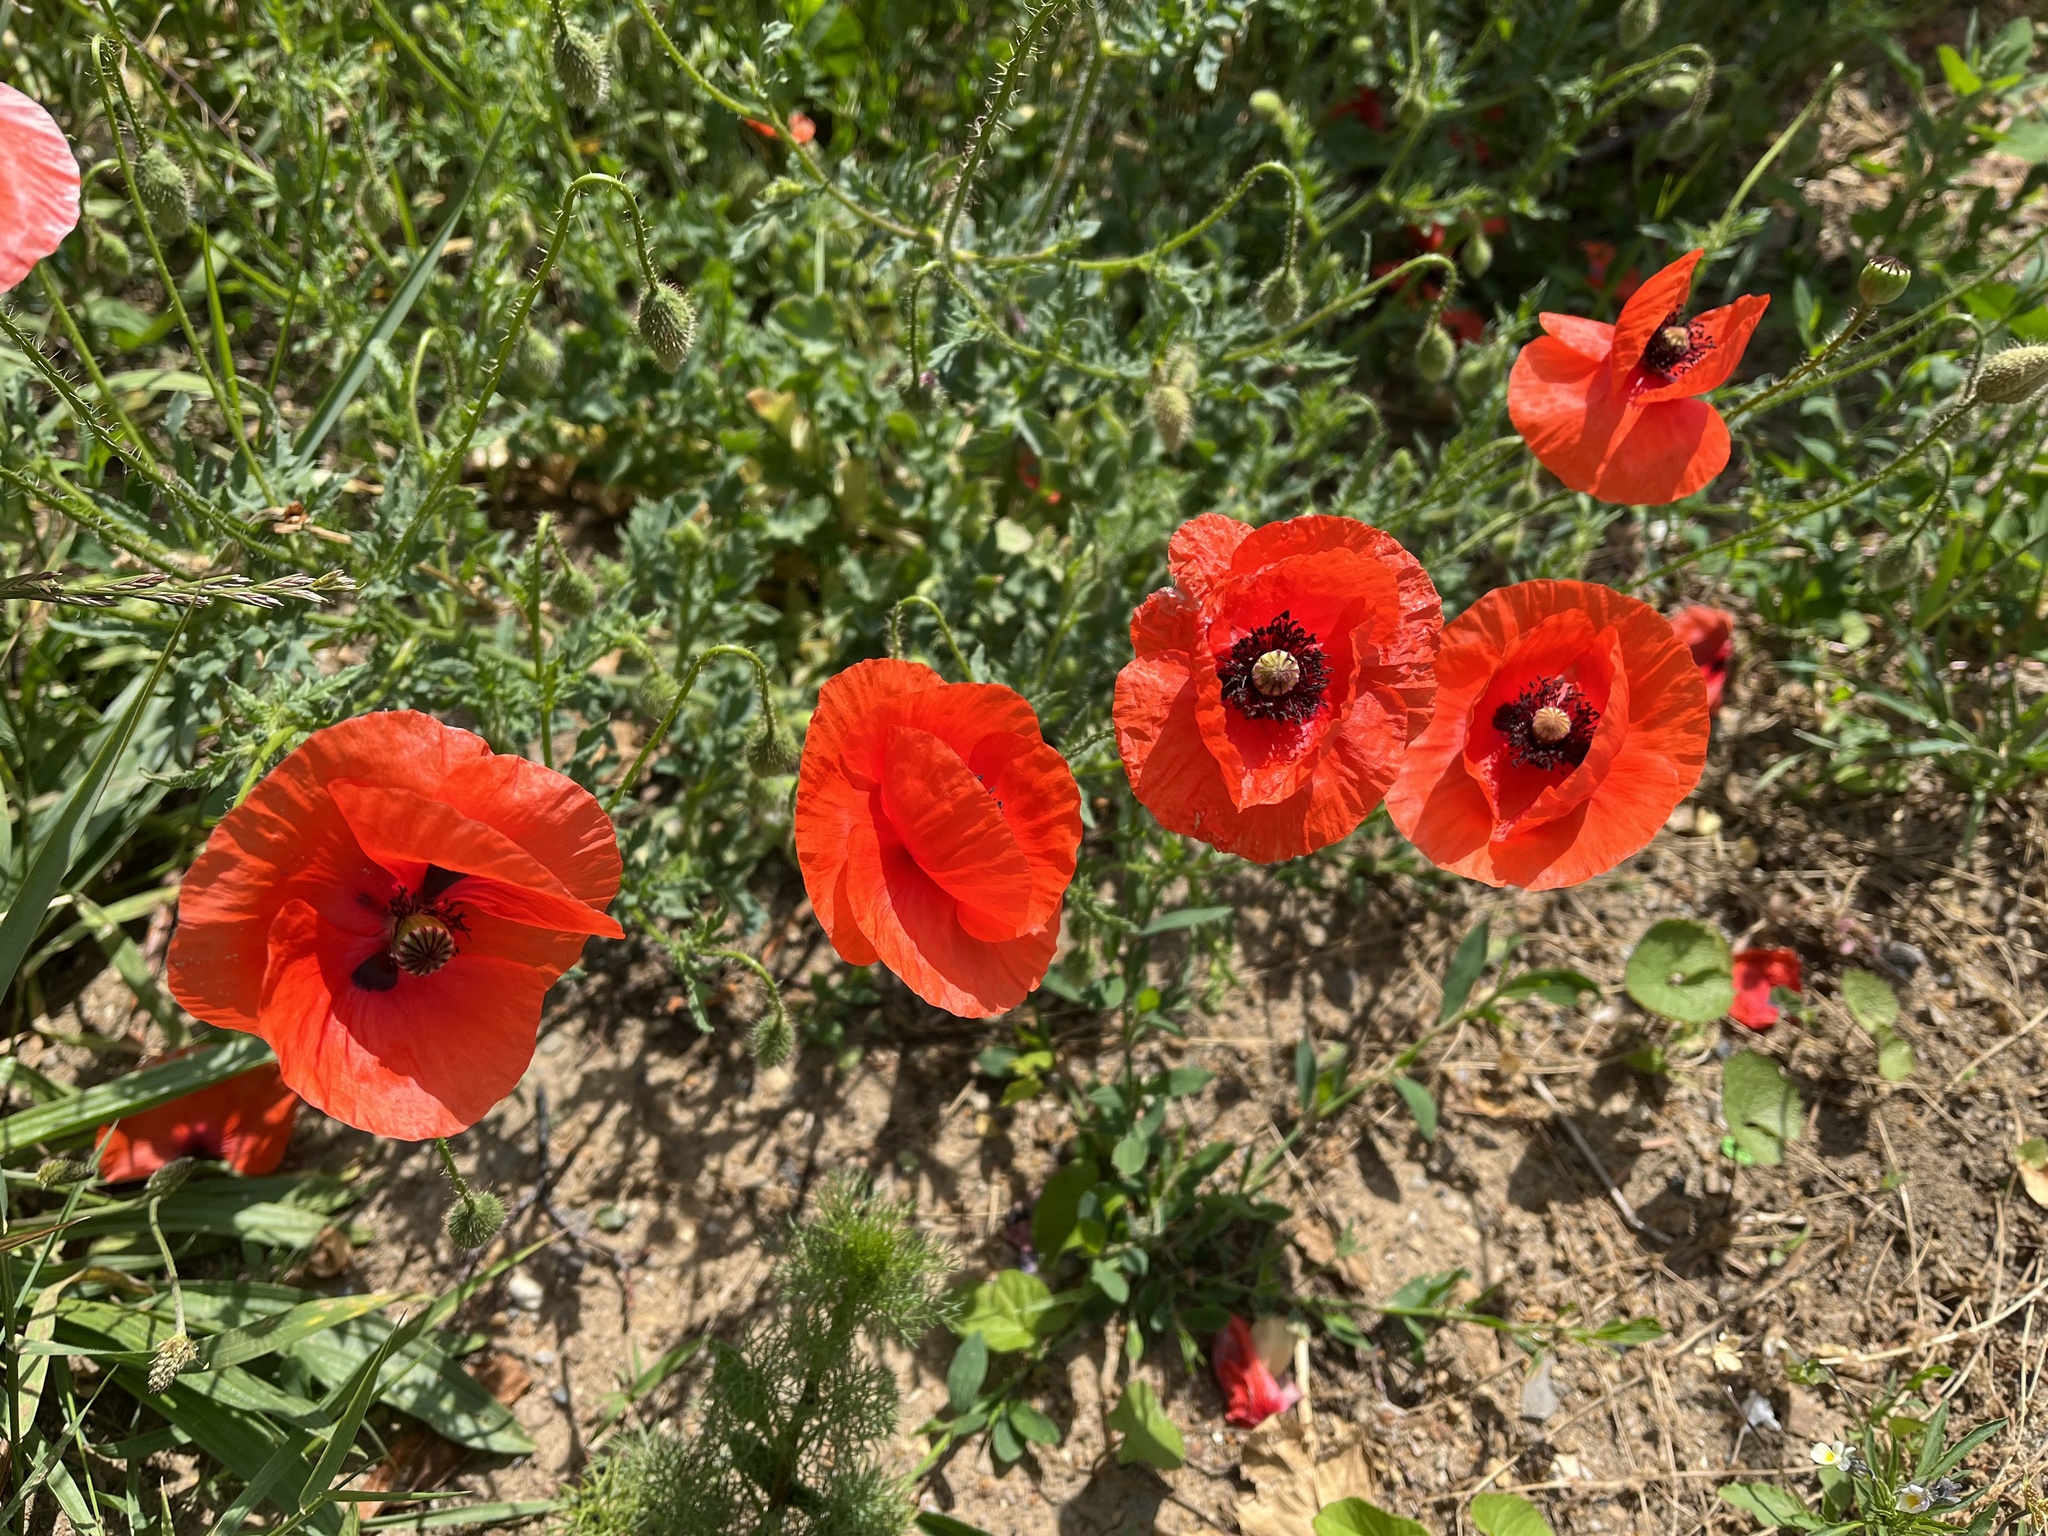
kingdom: Plantae
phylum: Tracheophyta
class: Magnoliopsida
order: Ranunculales
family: Papaveraceae
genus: Papaver
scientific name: Papaver rhoeas
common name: Corn poppy
